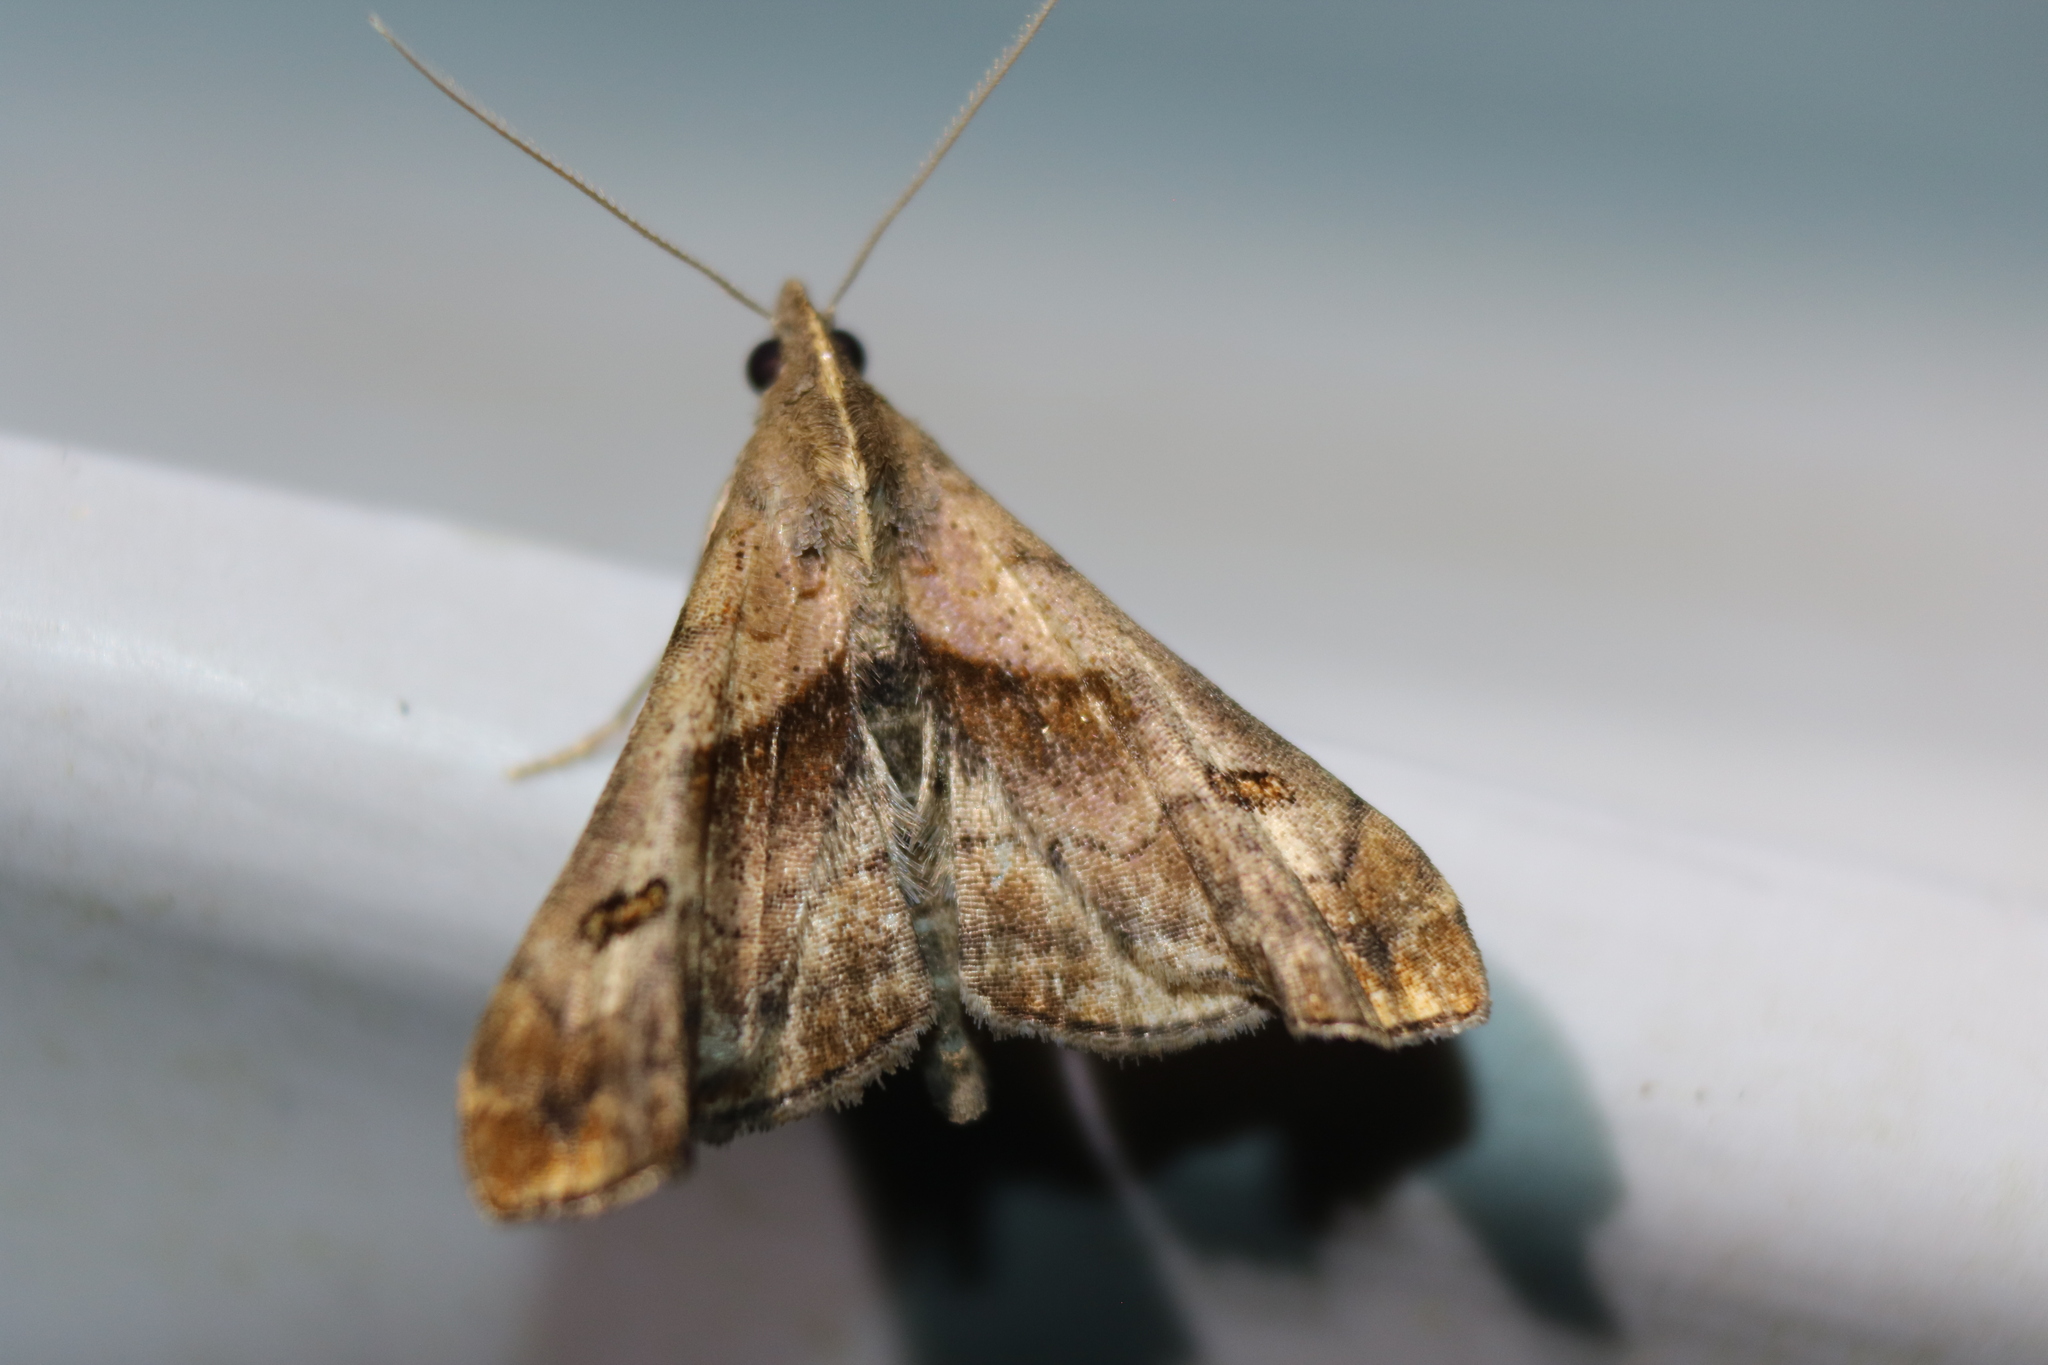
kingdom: Animalia
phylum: Arthropoda
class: Insecta
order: Lepidoptera
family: Erebidae
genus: Palthis
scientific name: Palthis angulalis
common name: Dark-spotted palthis moth
